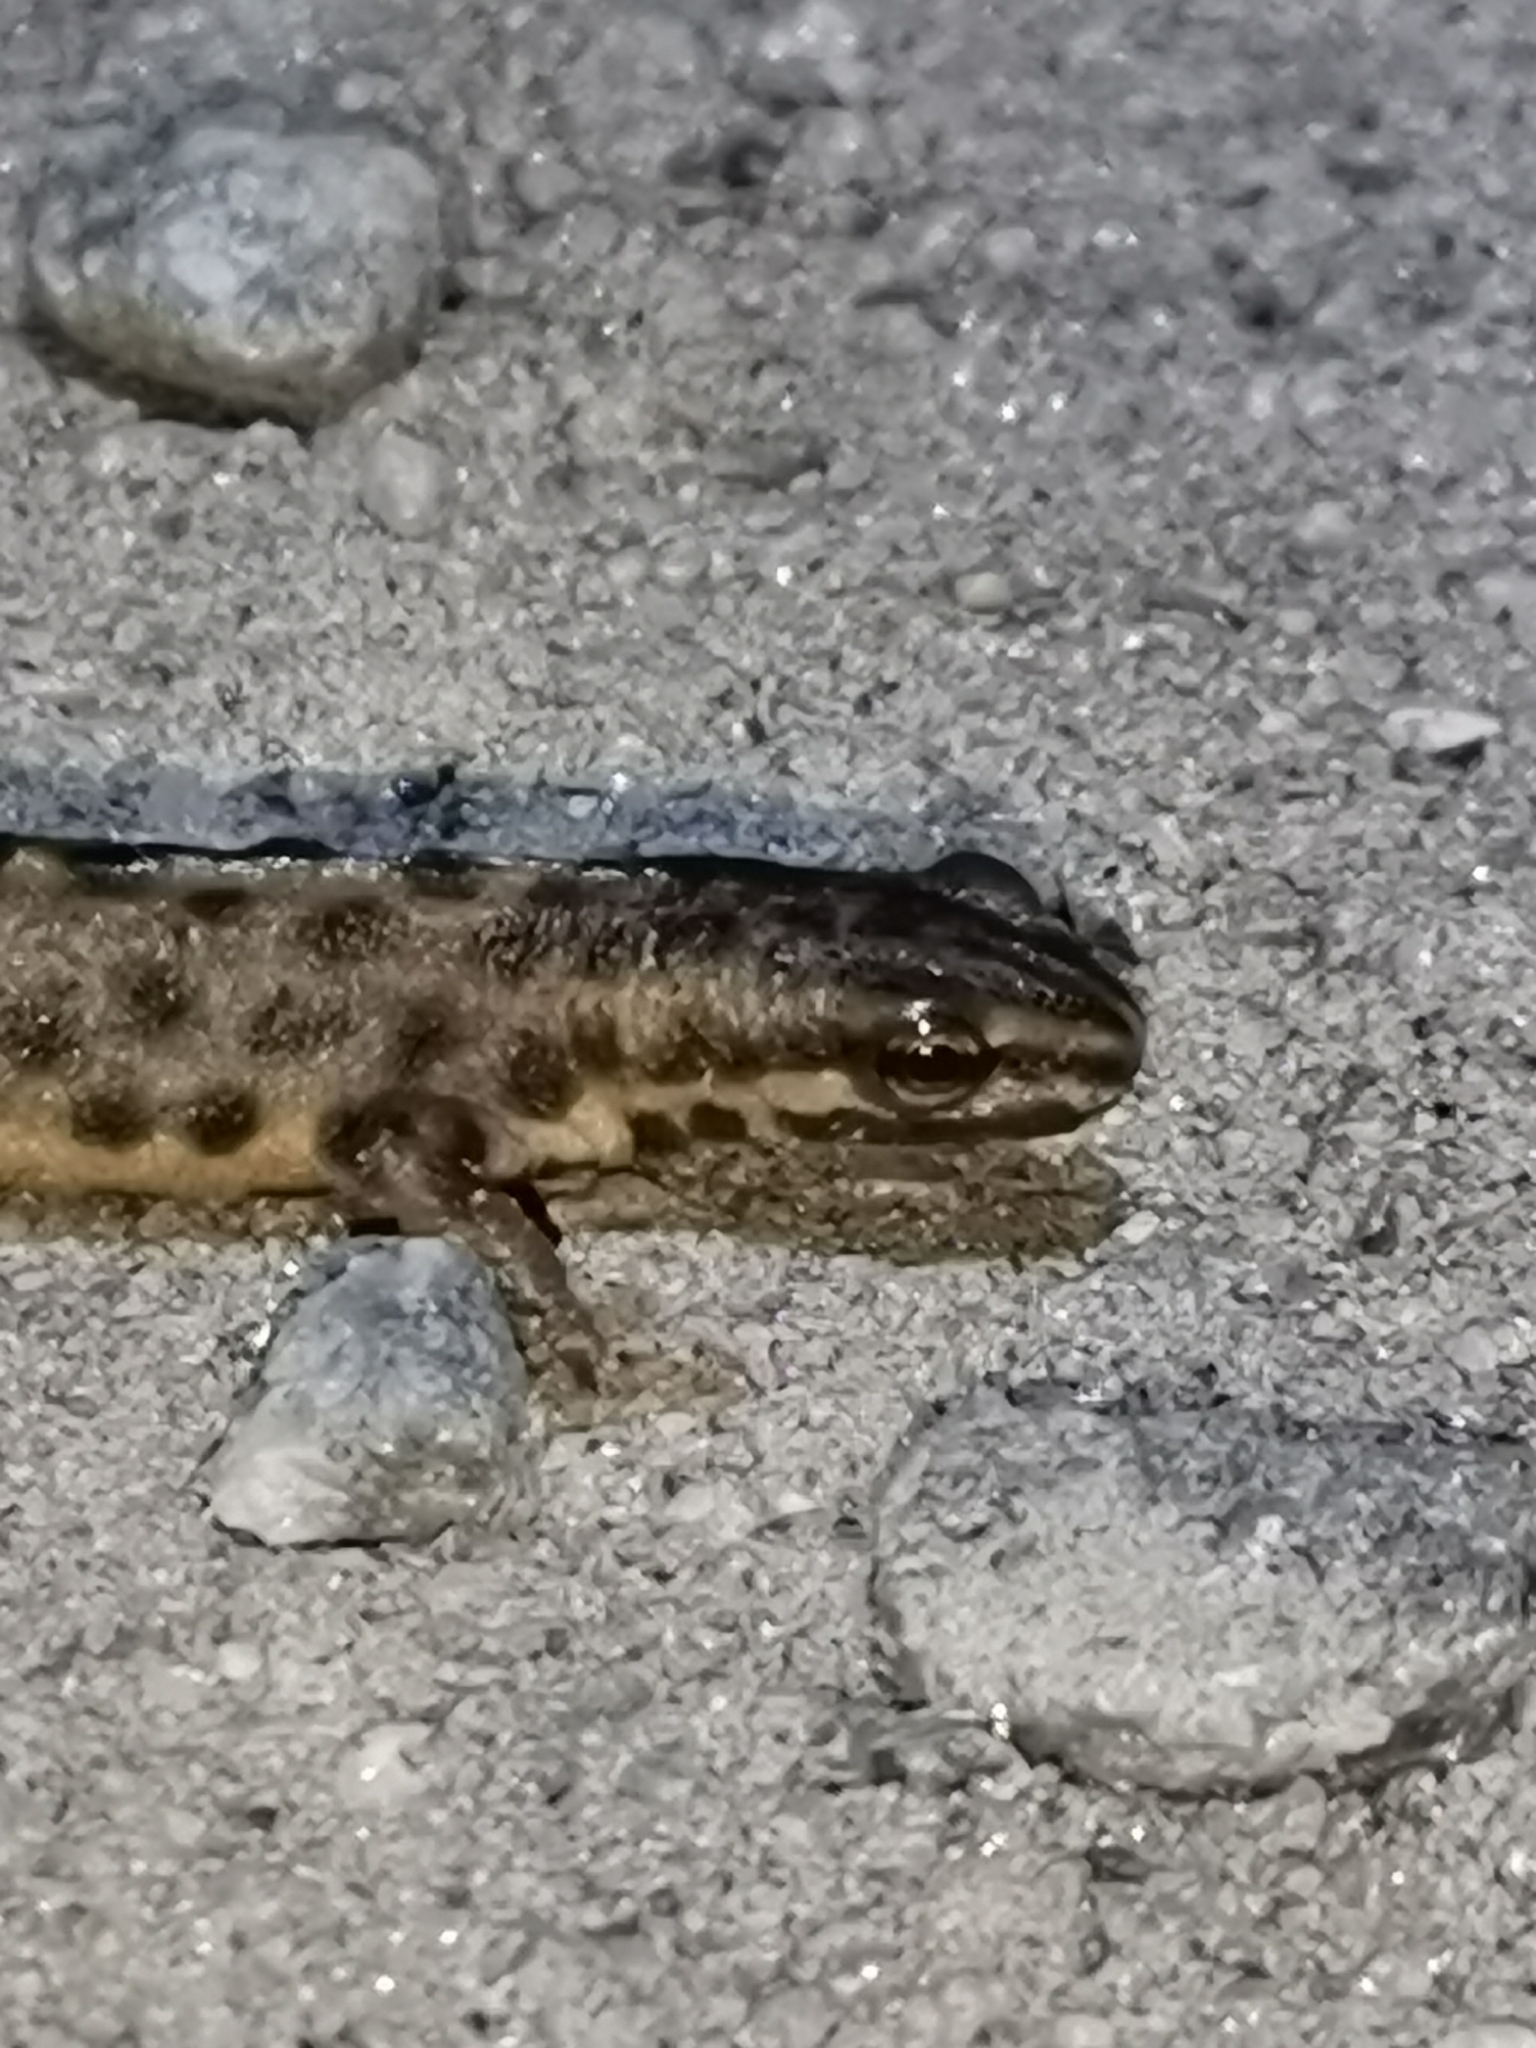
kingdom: Animalia
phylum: Chordata
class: Amphibia
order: Caudata
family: Salamandridae
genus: Lissotriton
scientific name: Lissotriton vulgaris
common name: Smooth newt
